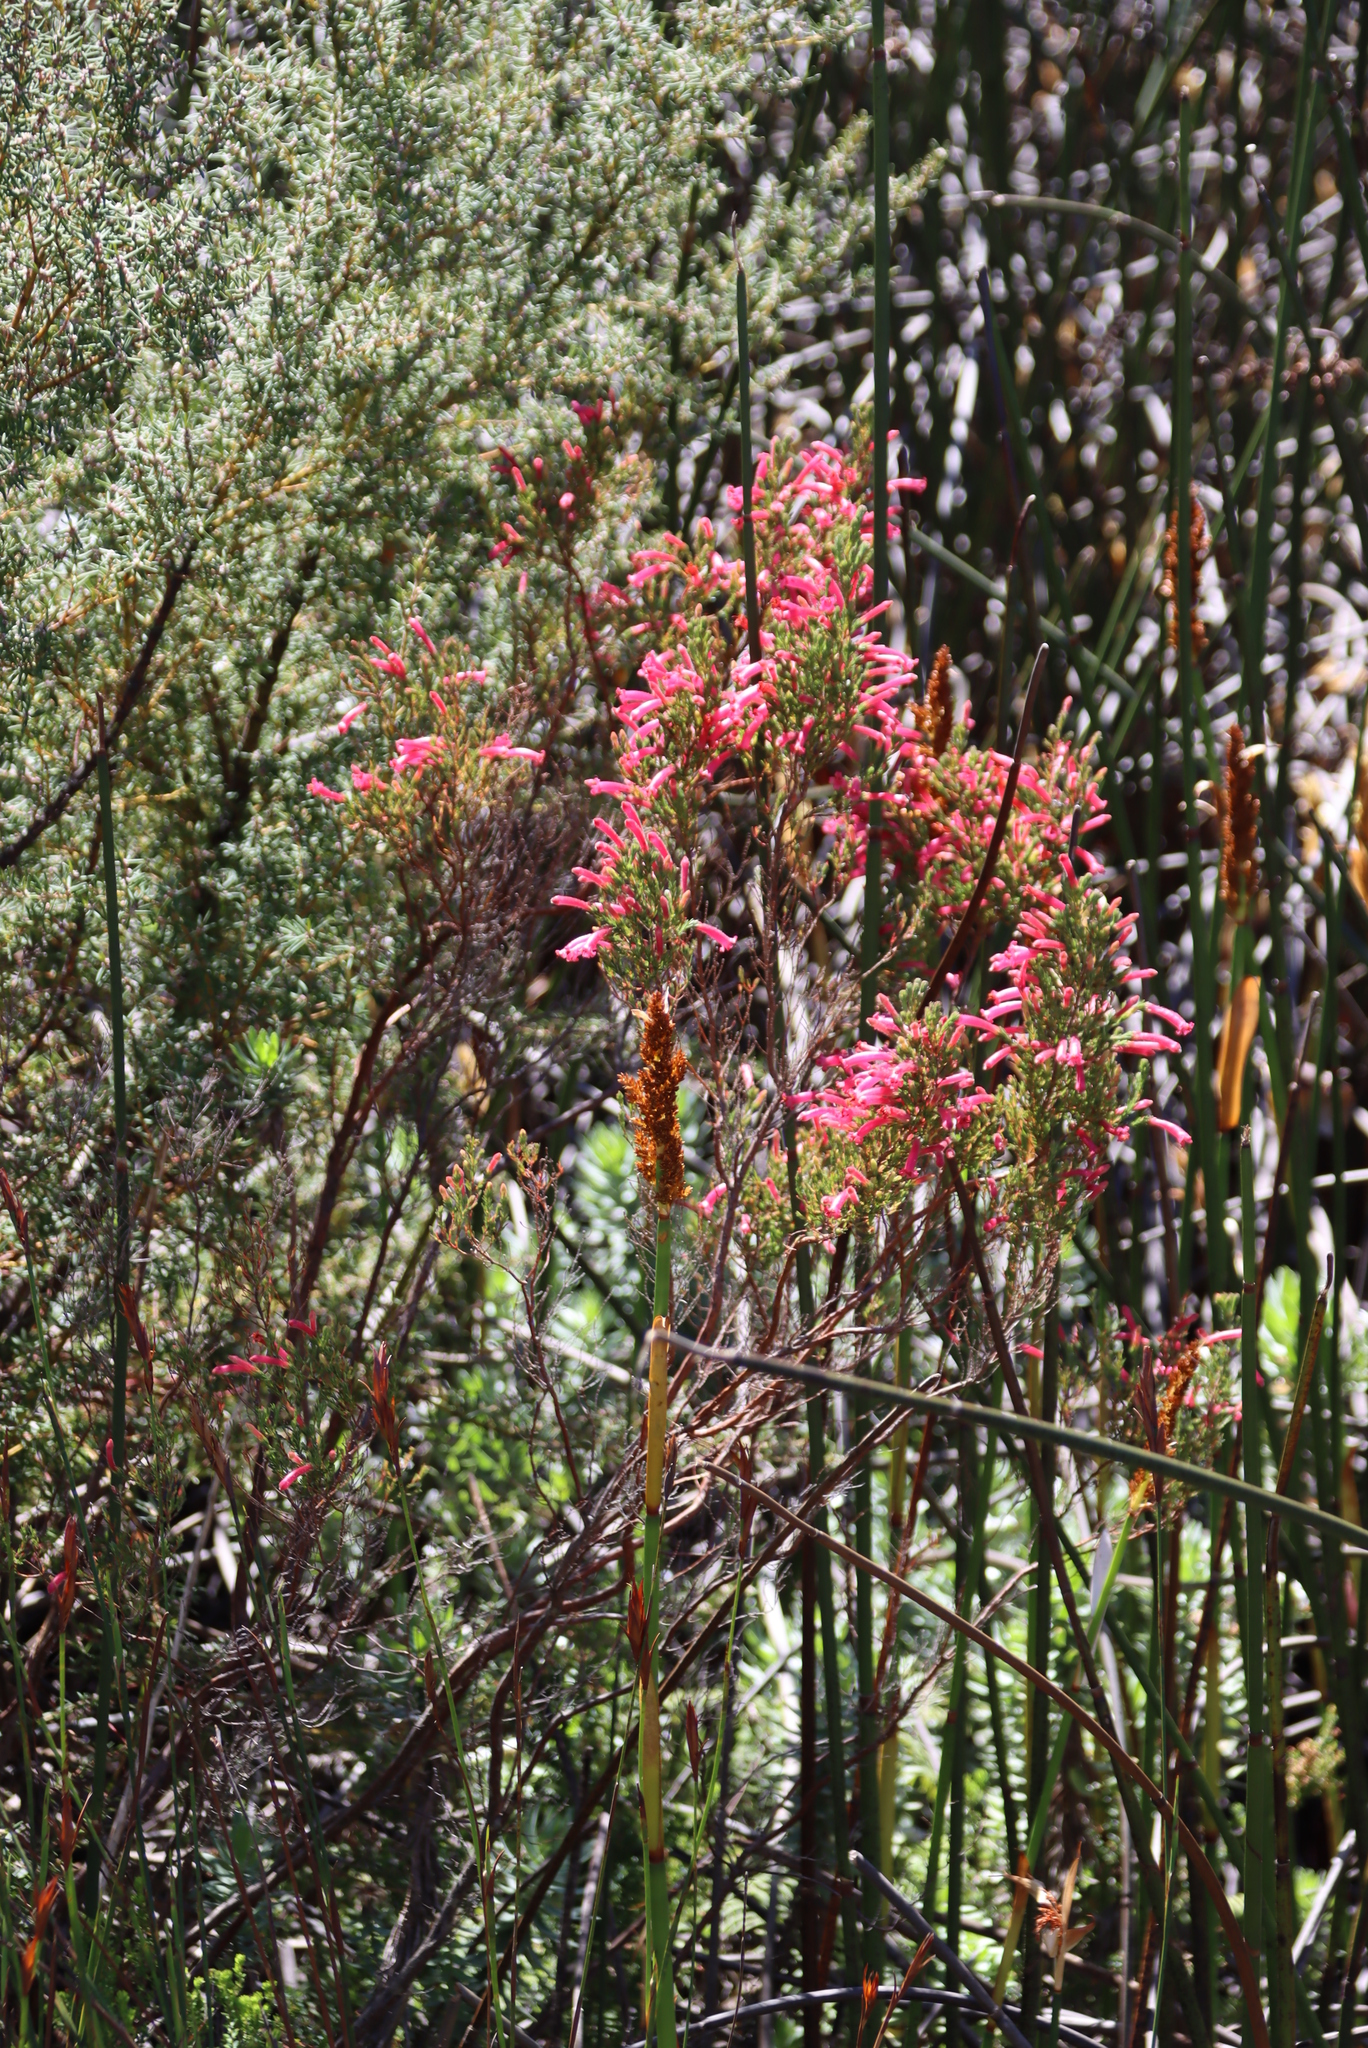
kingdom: Plantae
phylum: Tracheophyta
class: Magnoliopsida
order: Ericales
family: Ericaceae
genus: Erica
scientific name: Erica curviflora
